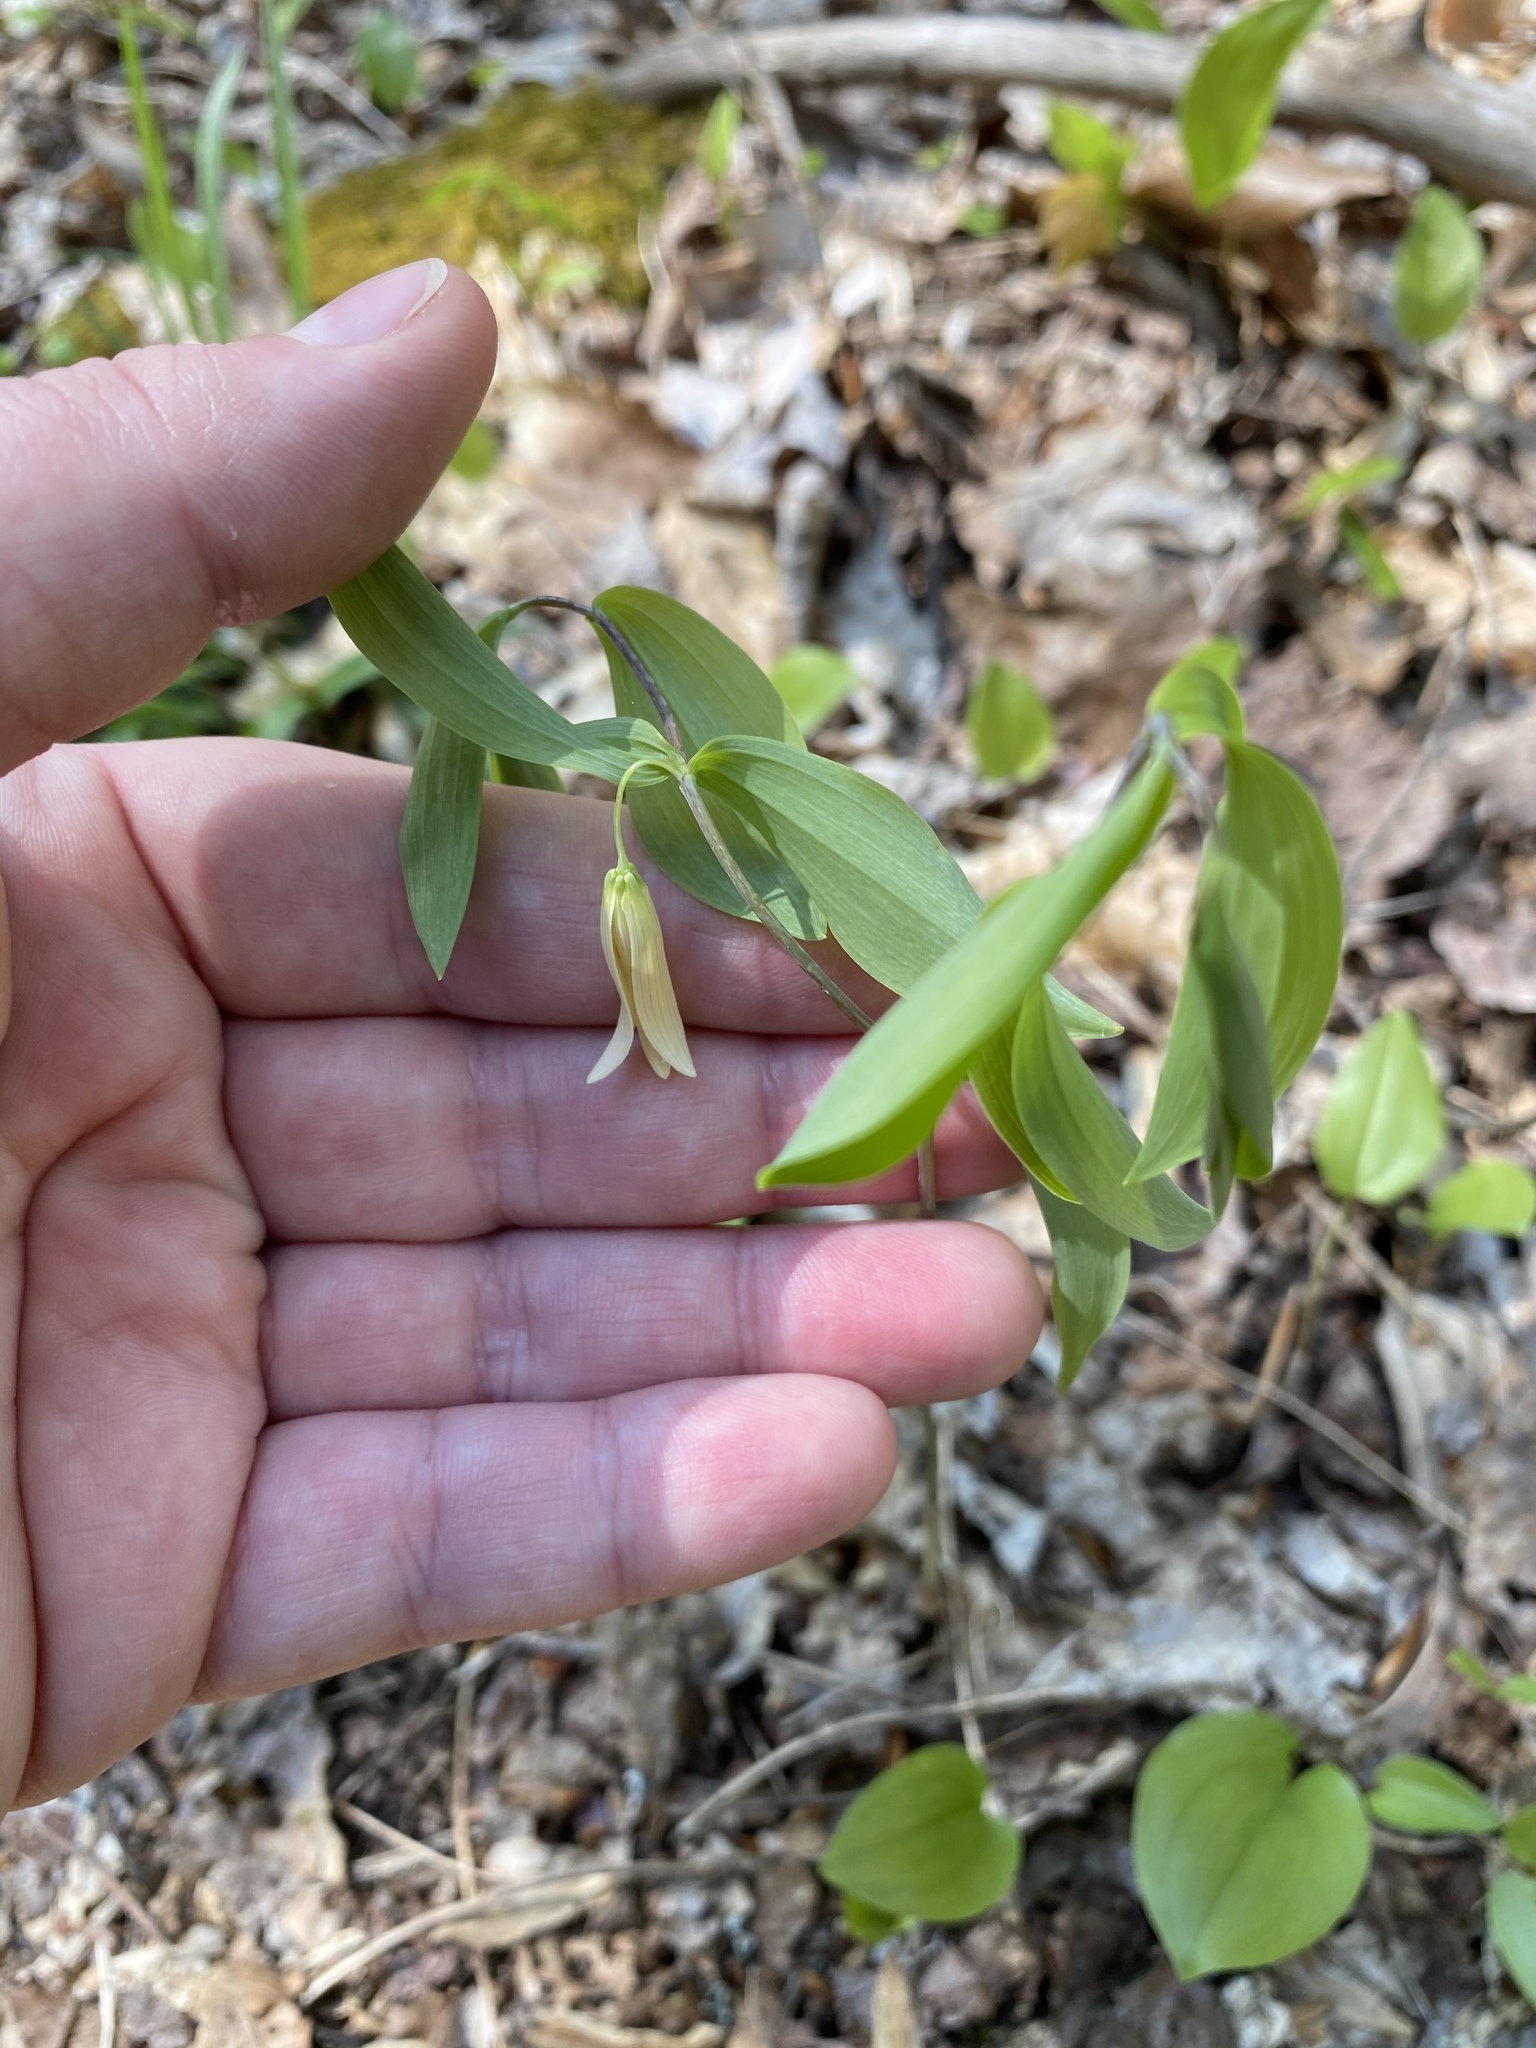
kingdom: Plantae
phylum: Tracheophyta
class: Liliopsida
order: Liliales
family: Colchicaceae
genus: Uvularia
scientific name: Uvularia sessilifolia
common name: Straw-lily
